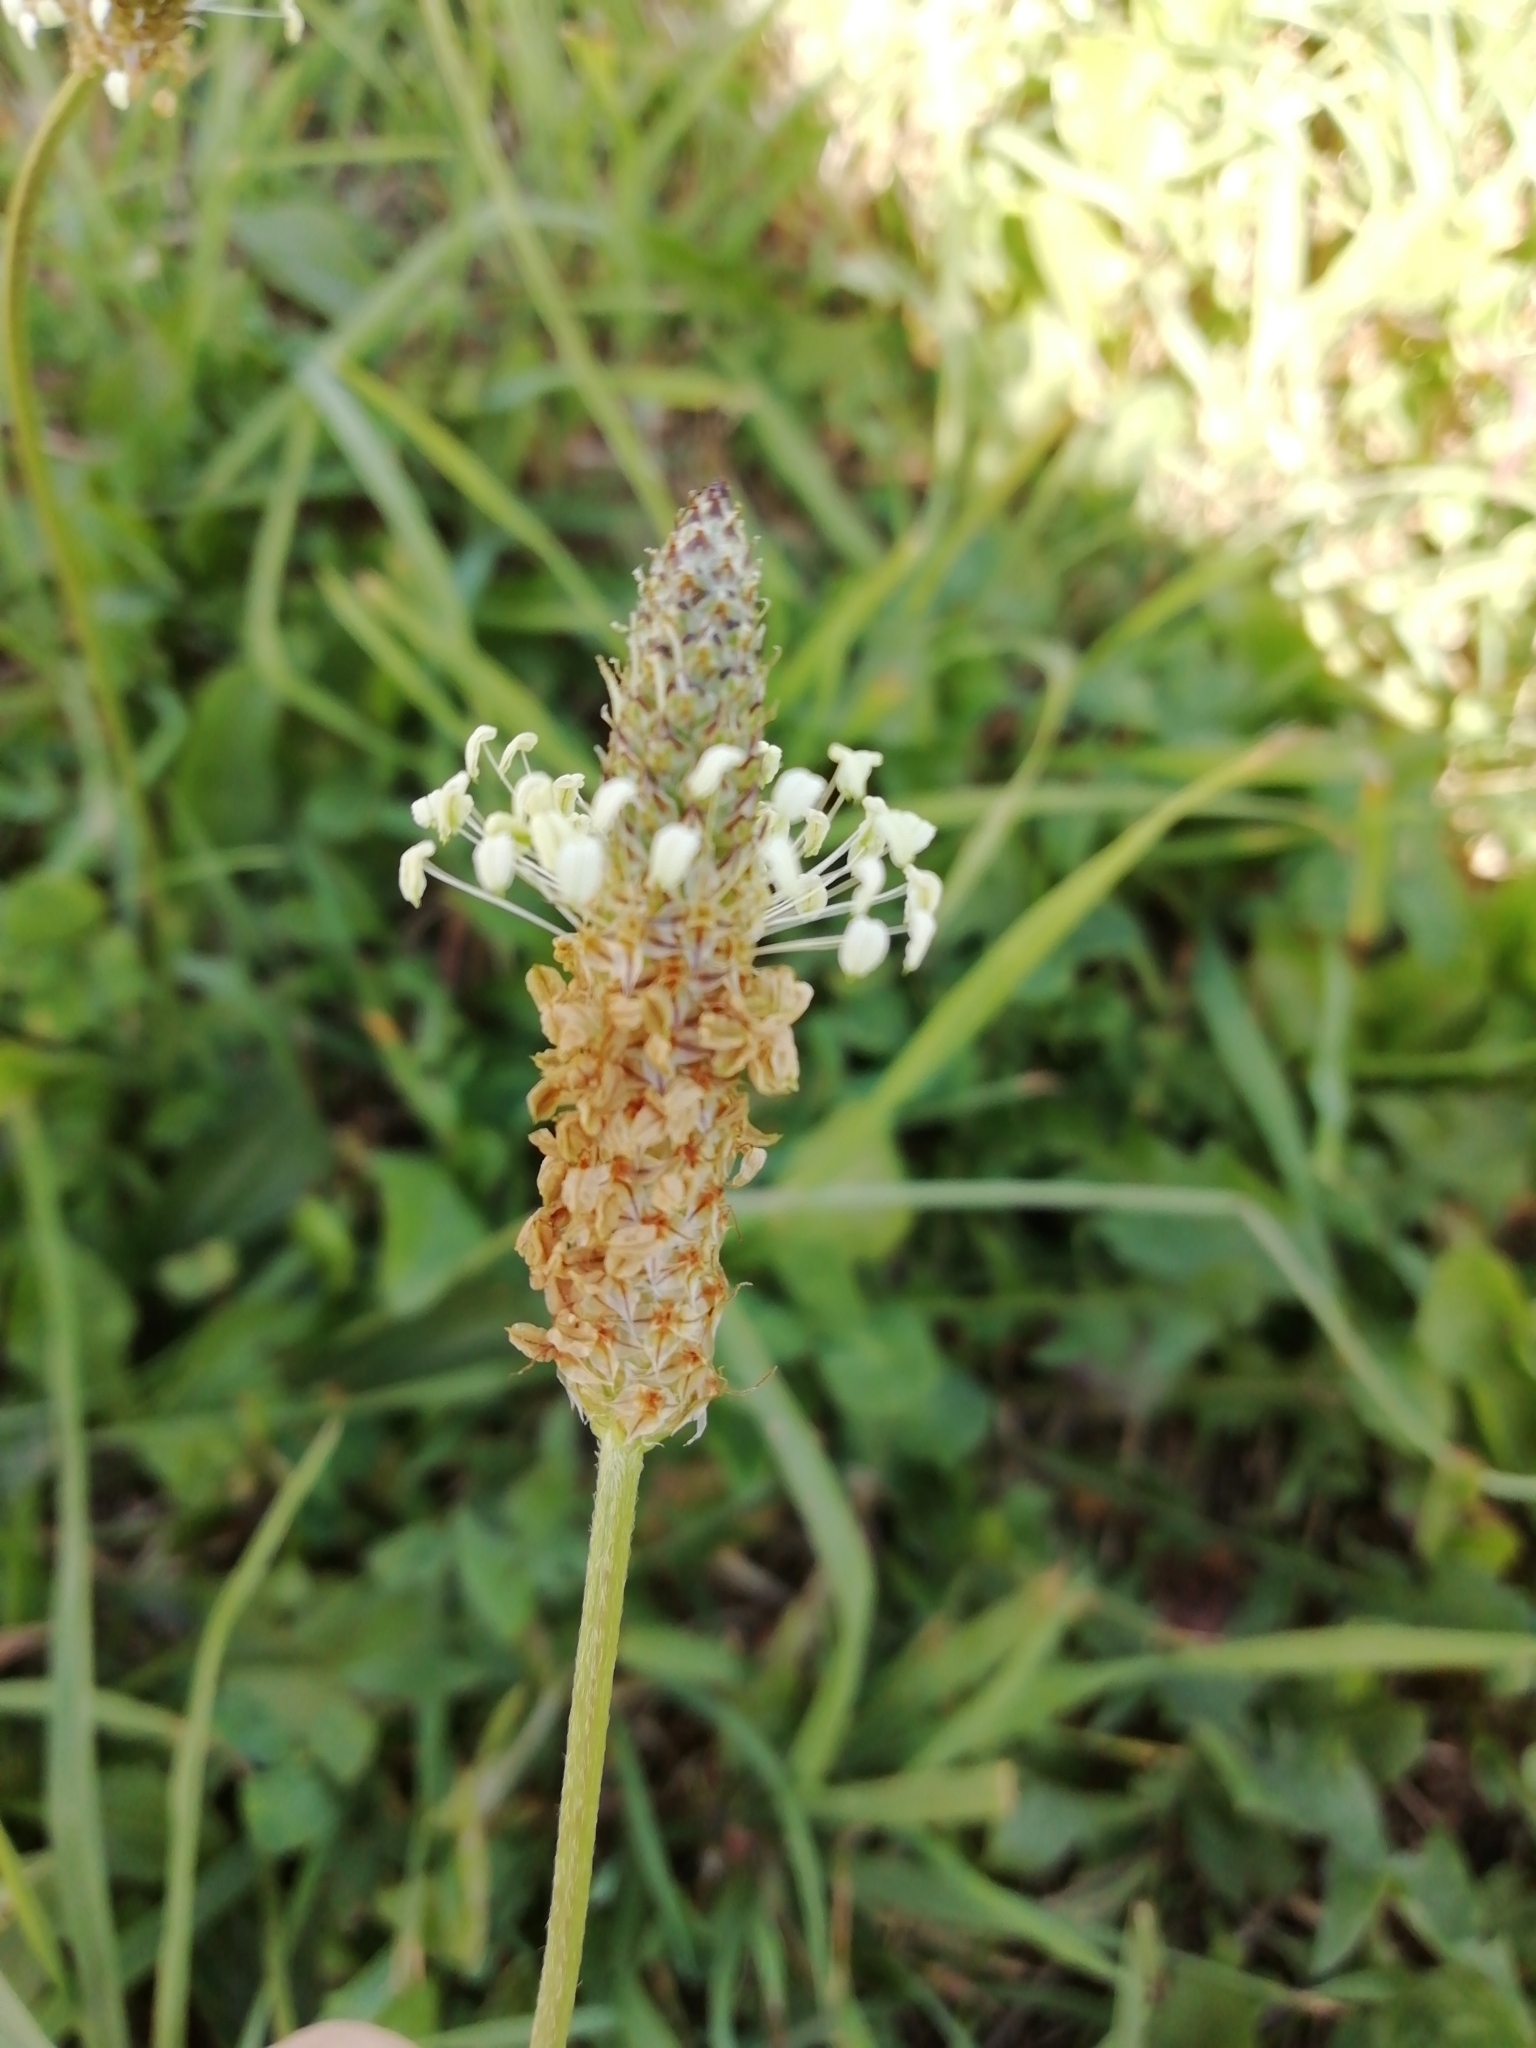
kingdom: Plantae
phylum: Tracheophyta
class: Magnoliopsida
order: Lamiales
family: Plantaginaceae
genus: Plantago
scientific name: Plantago lanceolata
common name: Ribwort plantain
